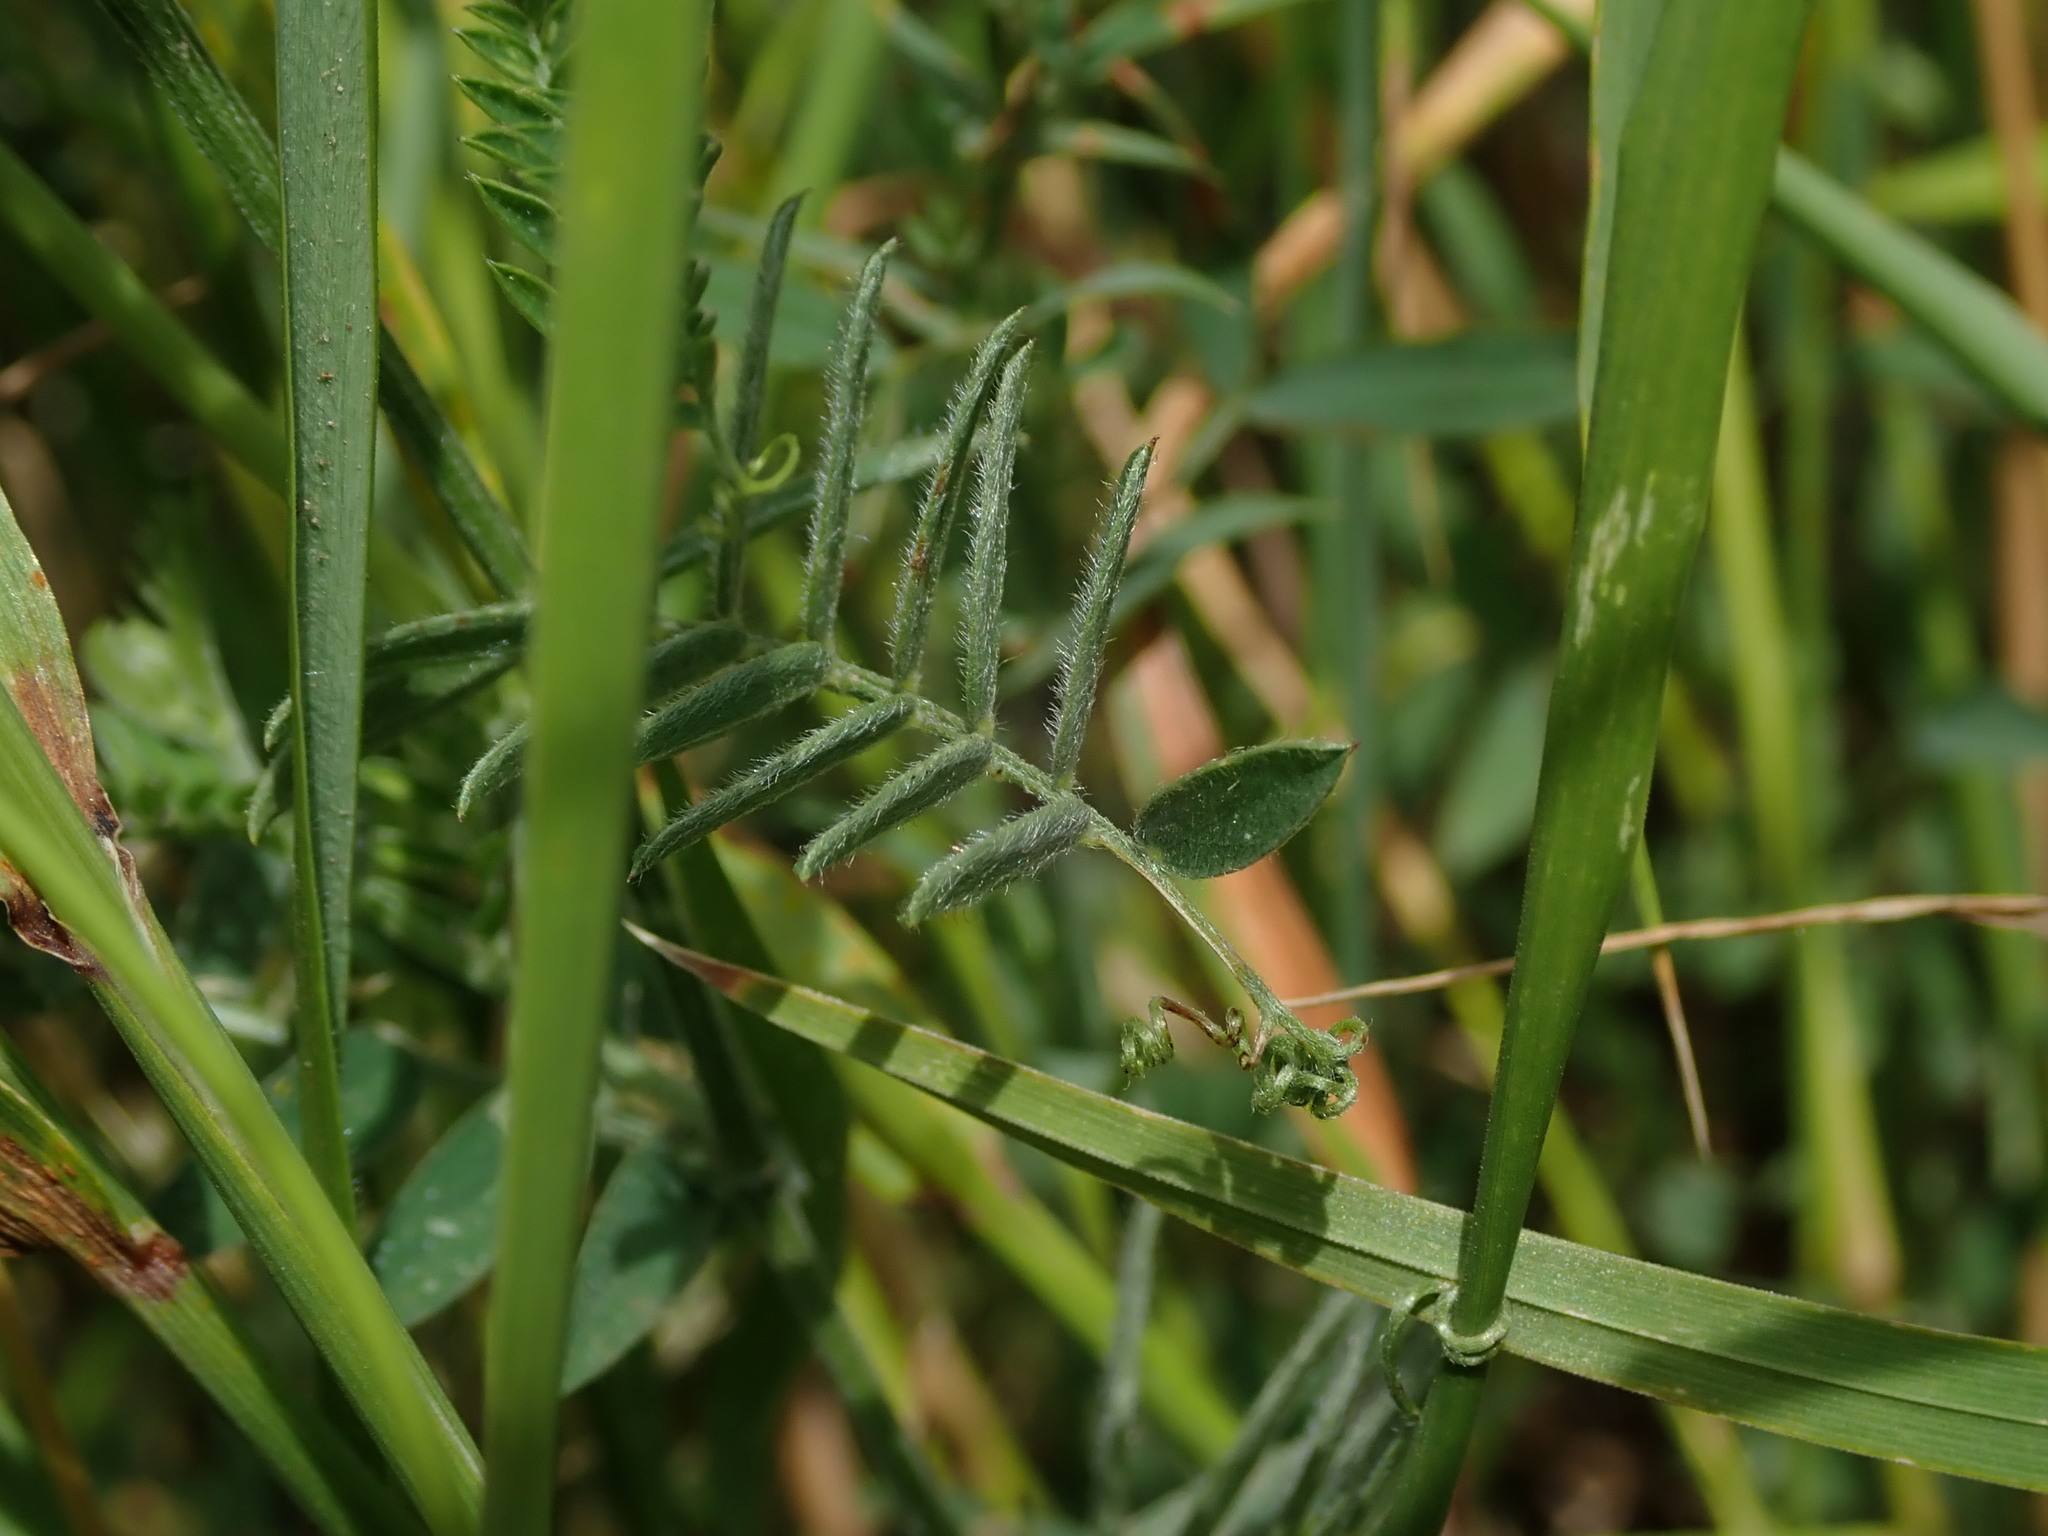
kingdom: Plantae
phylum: Tracheophyta
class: Magnoliopsida
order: Fabales
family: Fabaceae
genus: Vicia
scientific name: Vicia cracca
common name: Bird vetch
